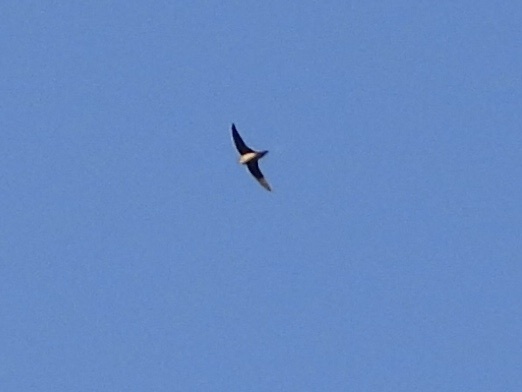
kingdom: Animalia
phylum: Chordata
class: Aves
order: Apodiformes
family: Apodidae
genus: Chaetura
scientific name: Chaetura vauxi
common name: Vaux's swift
